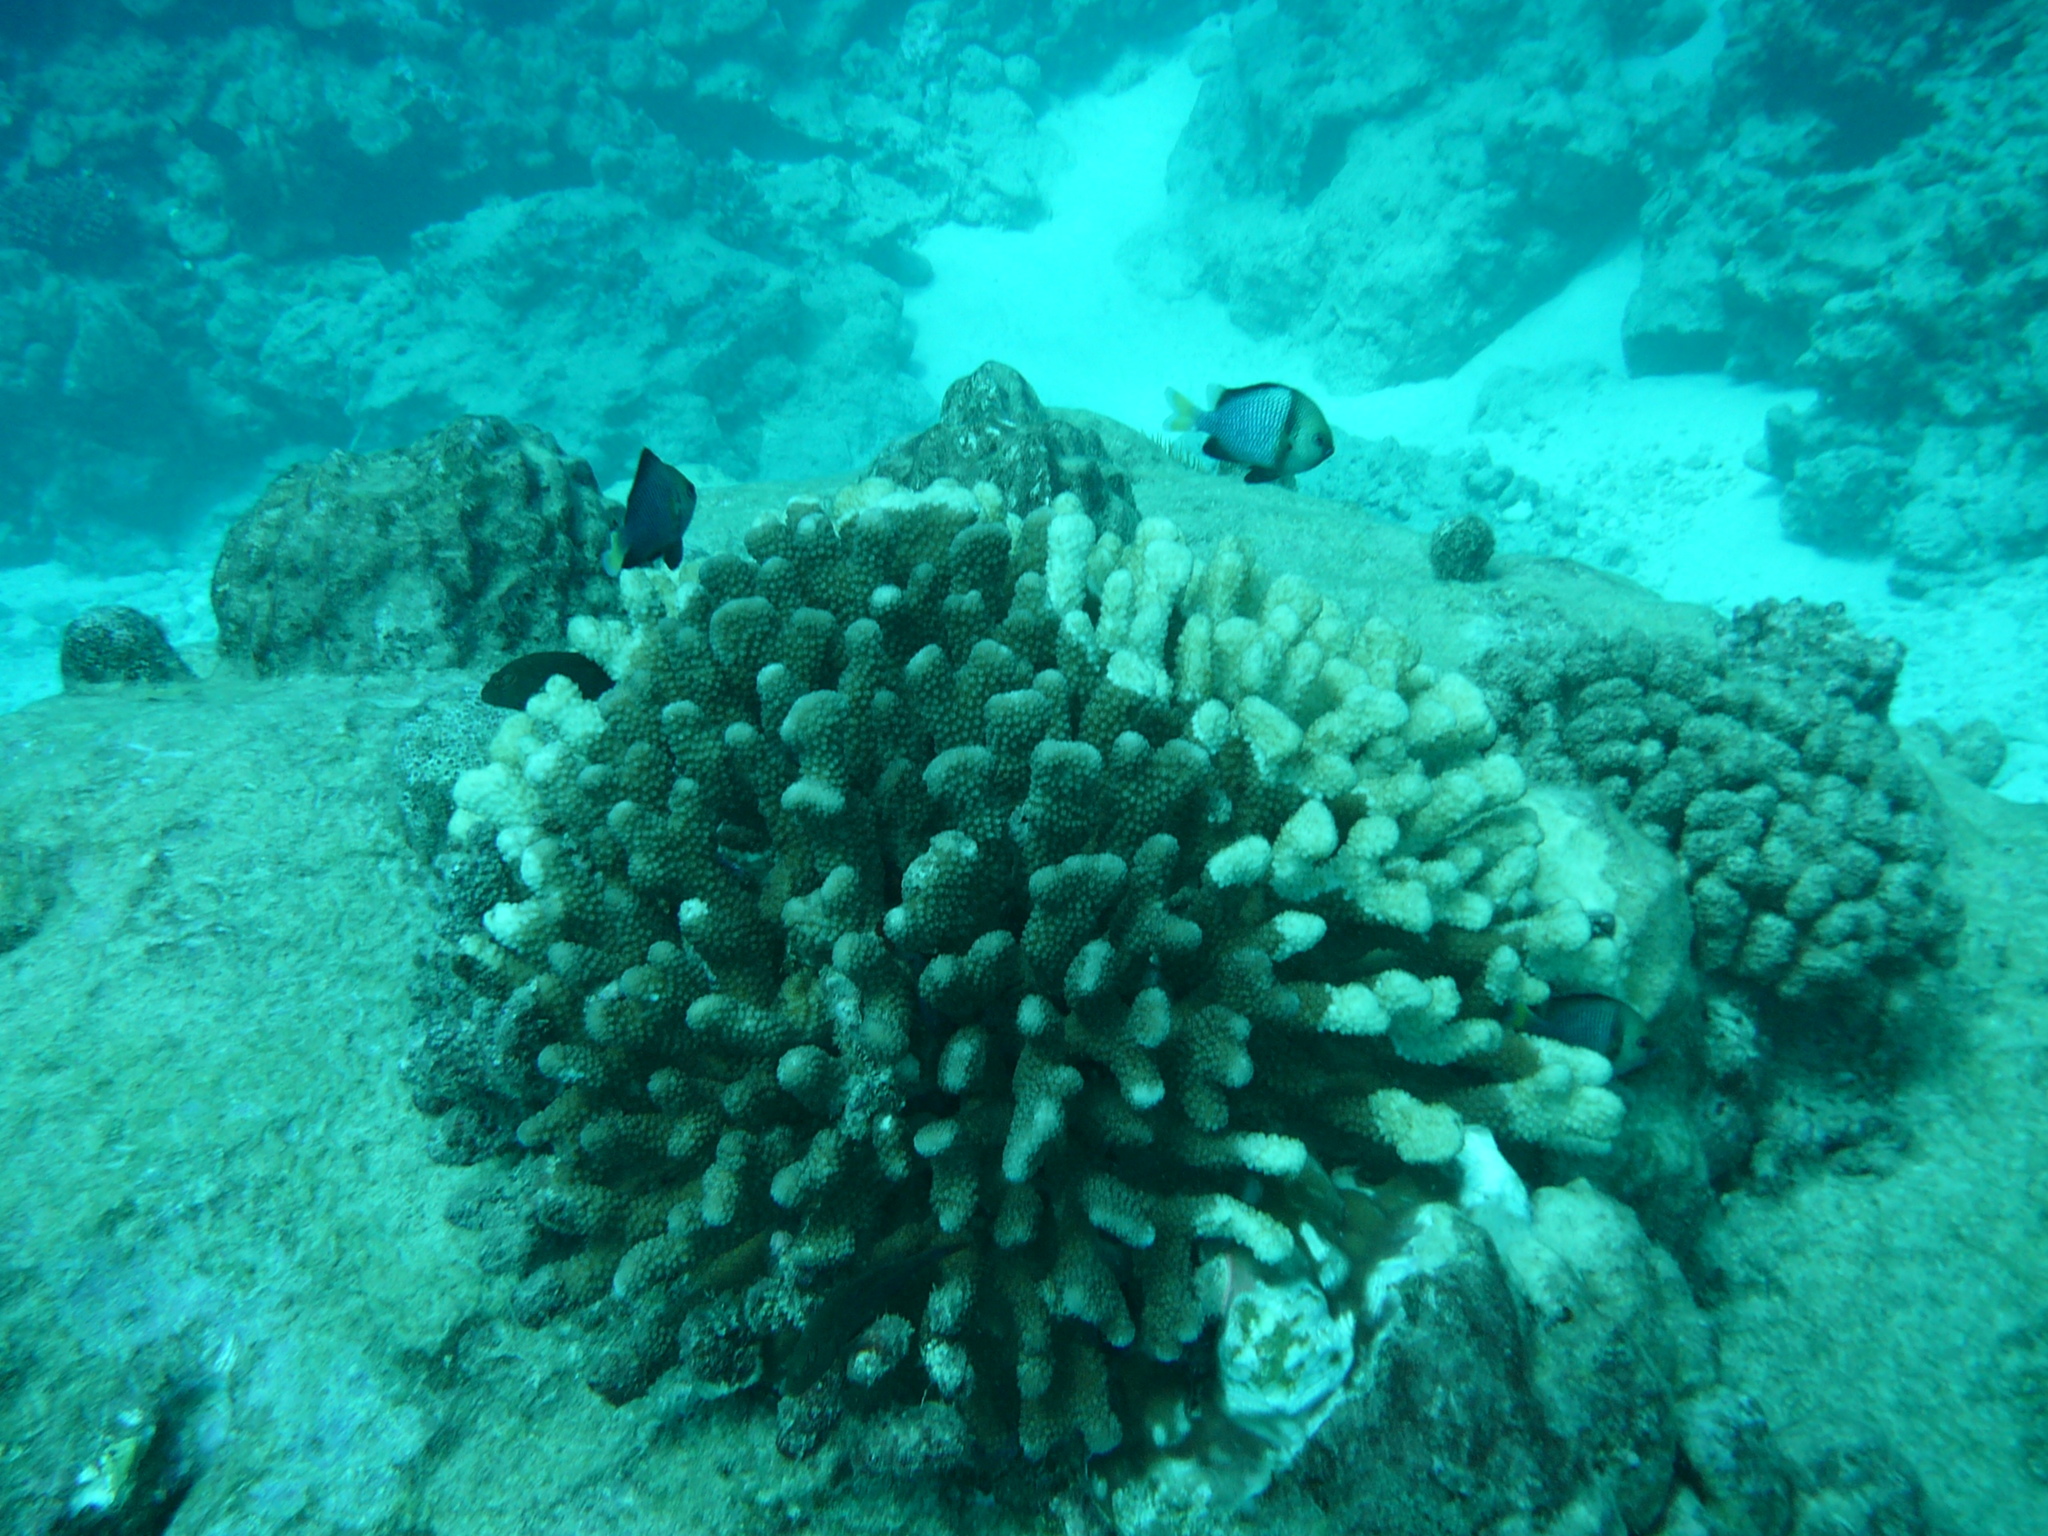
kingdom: Animalia
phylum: Chordata
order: Perciformes
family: Pomacentridae
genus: Dascyllus
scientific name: Dascyllus flavicaudus
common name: Yellow-tailed dascyllus
